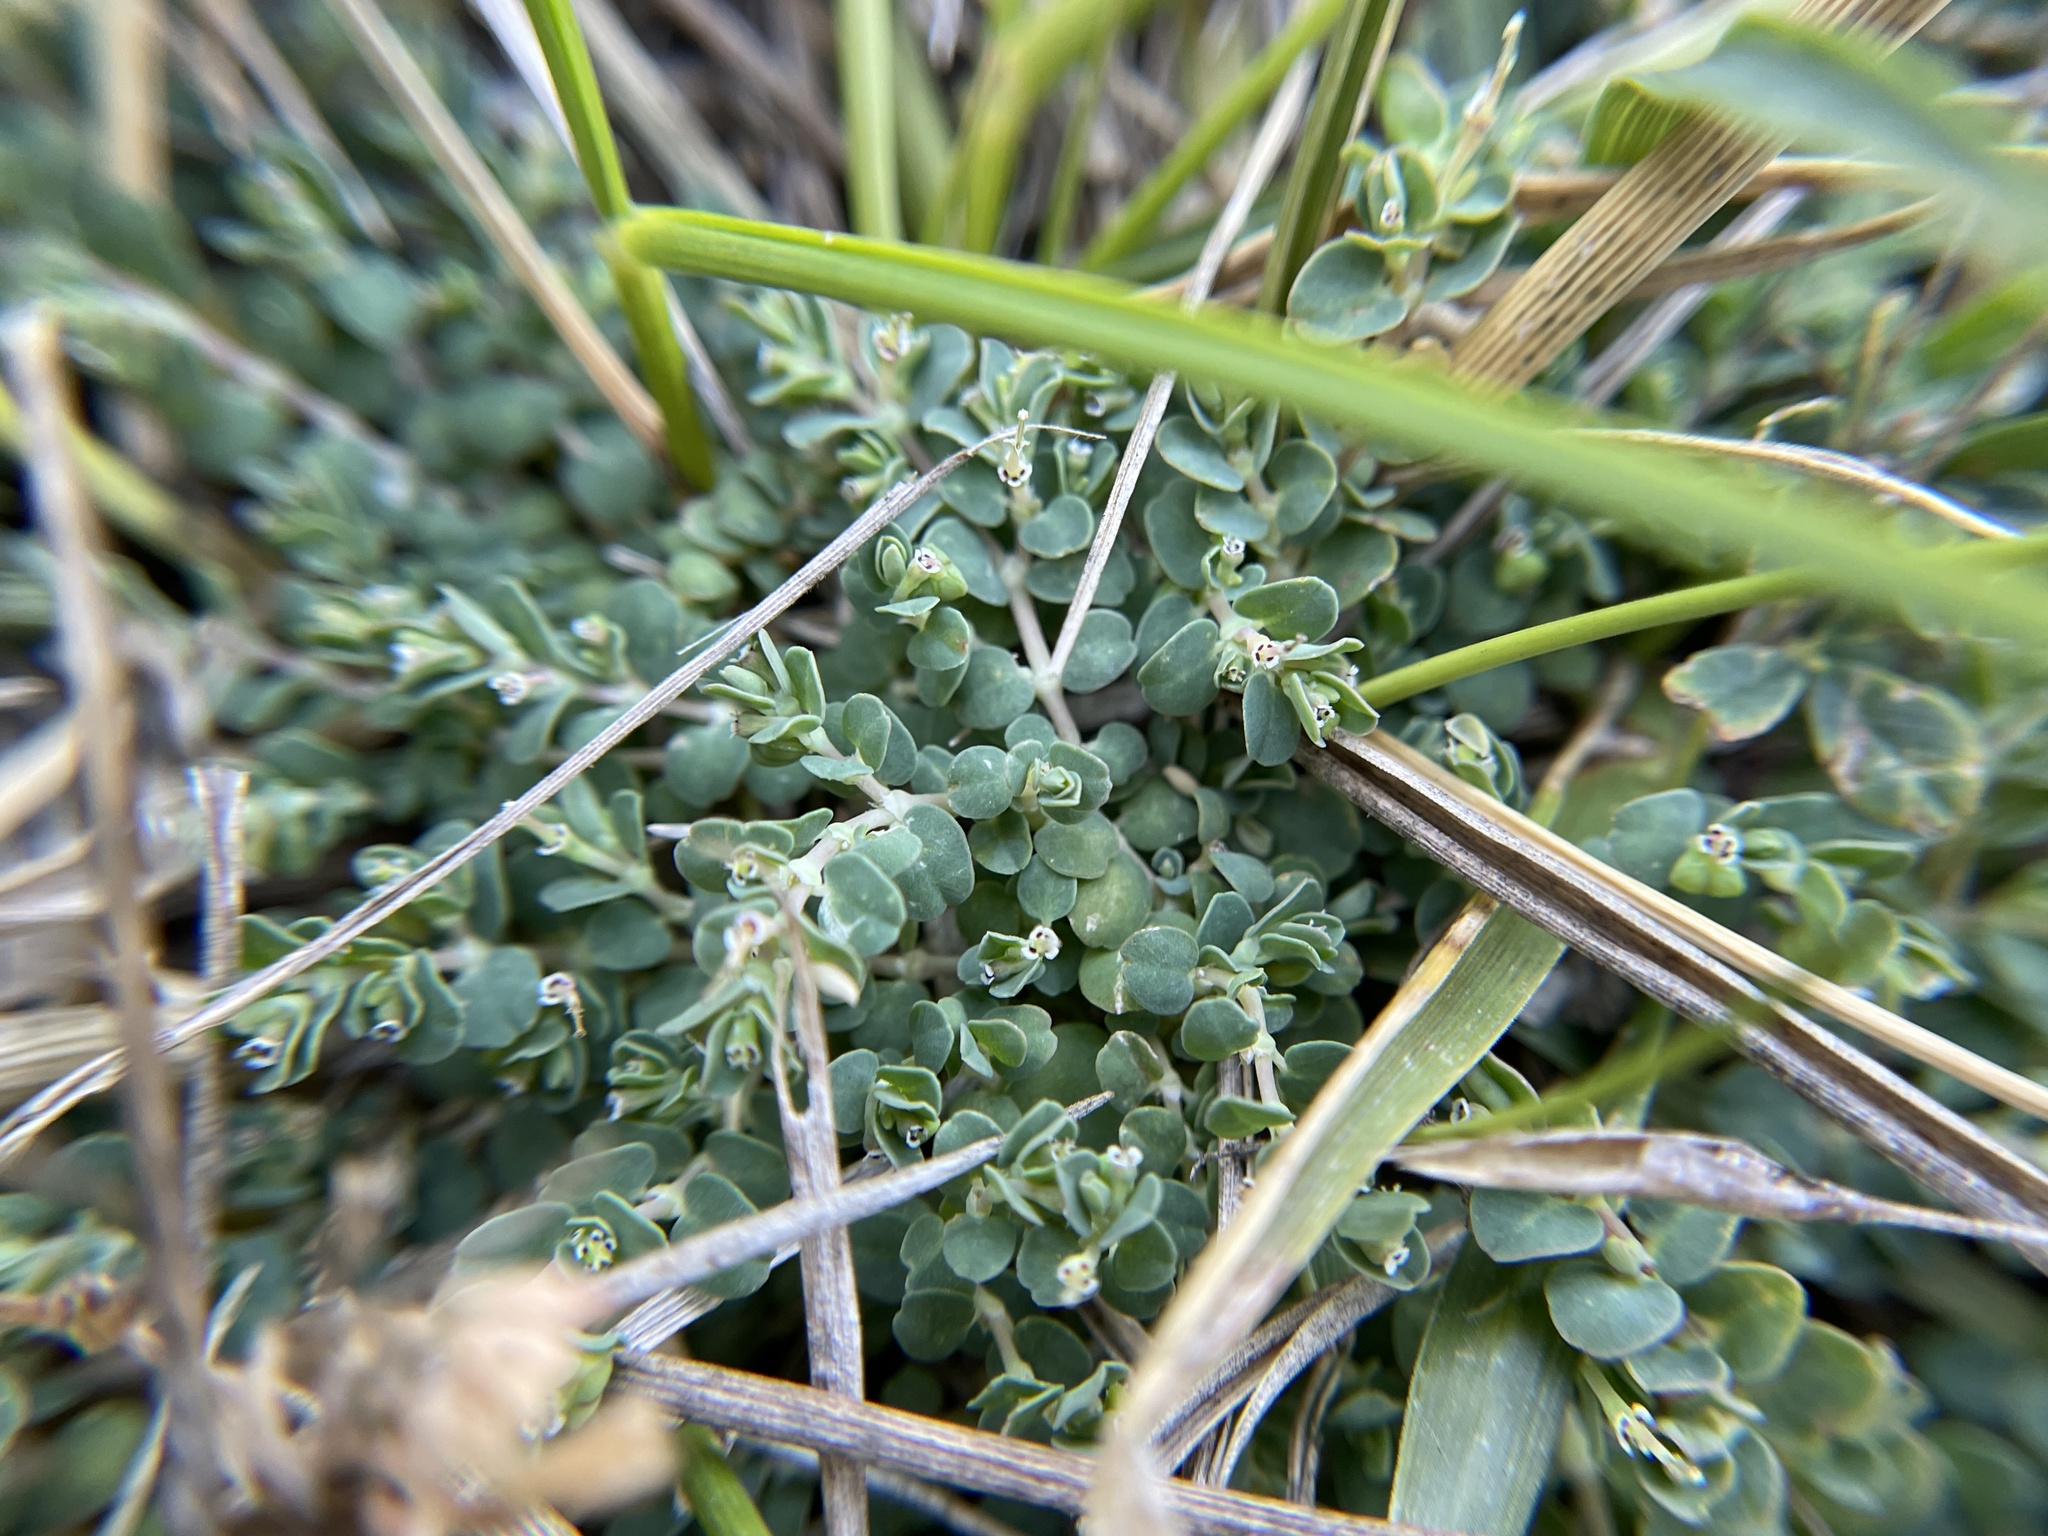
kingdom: Plantae
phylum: Tracheophyta
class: Magnoliopsida
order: Malpighiales
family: Euphorbiaceae
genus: Euphorbia
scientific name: Euphorbia serpens
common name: Matted sandmat
